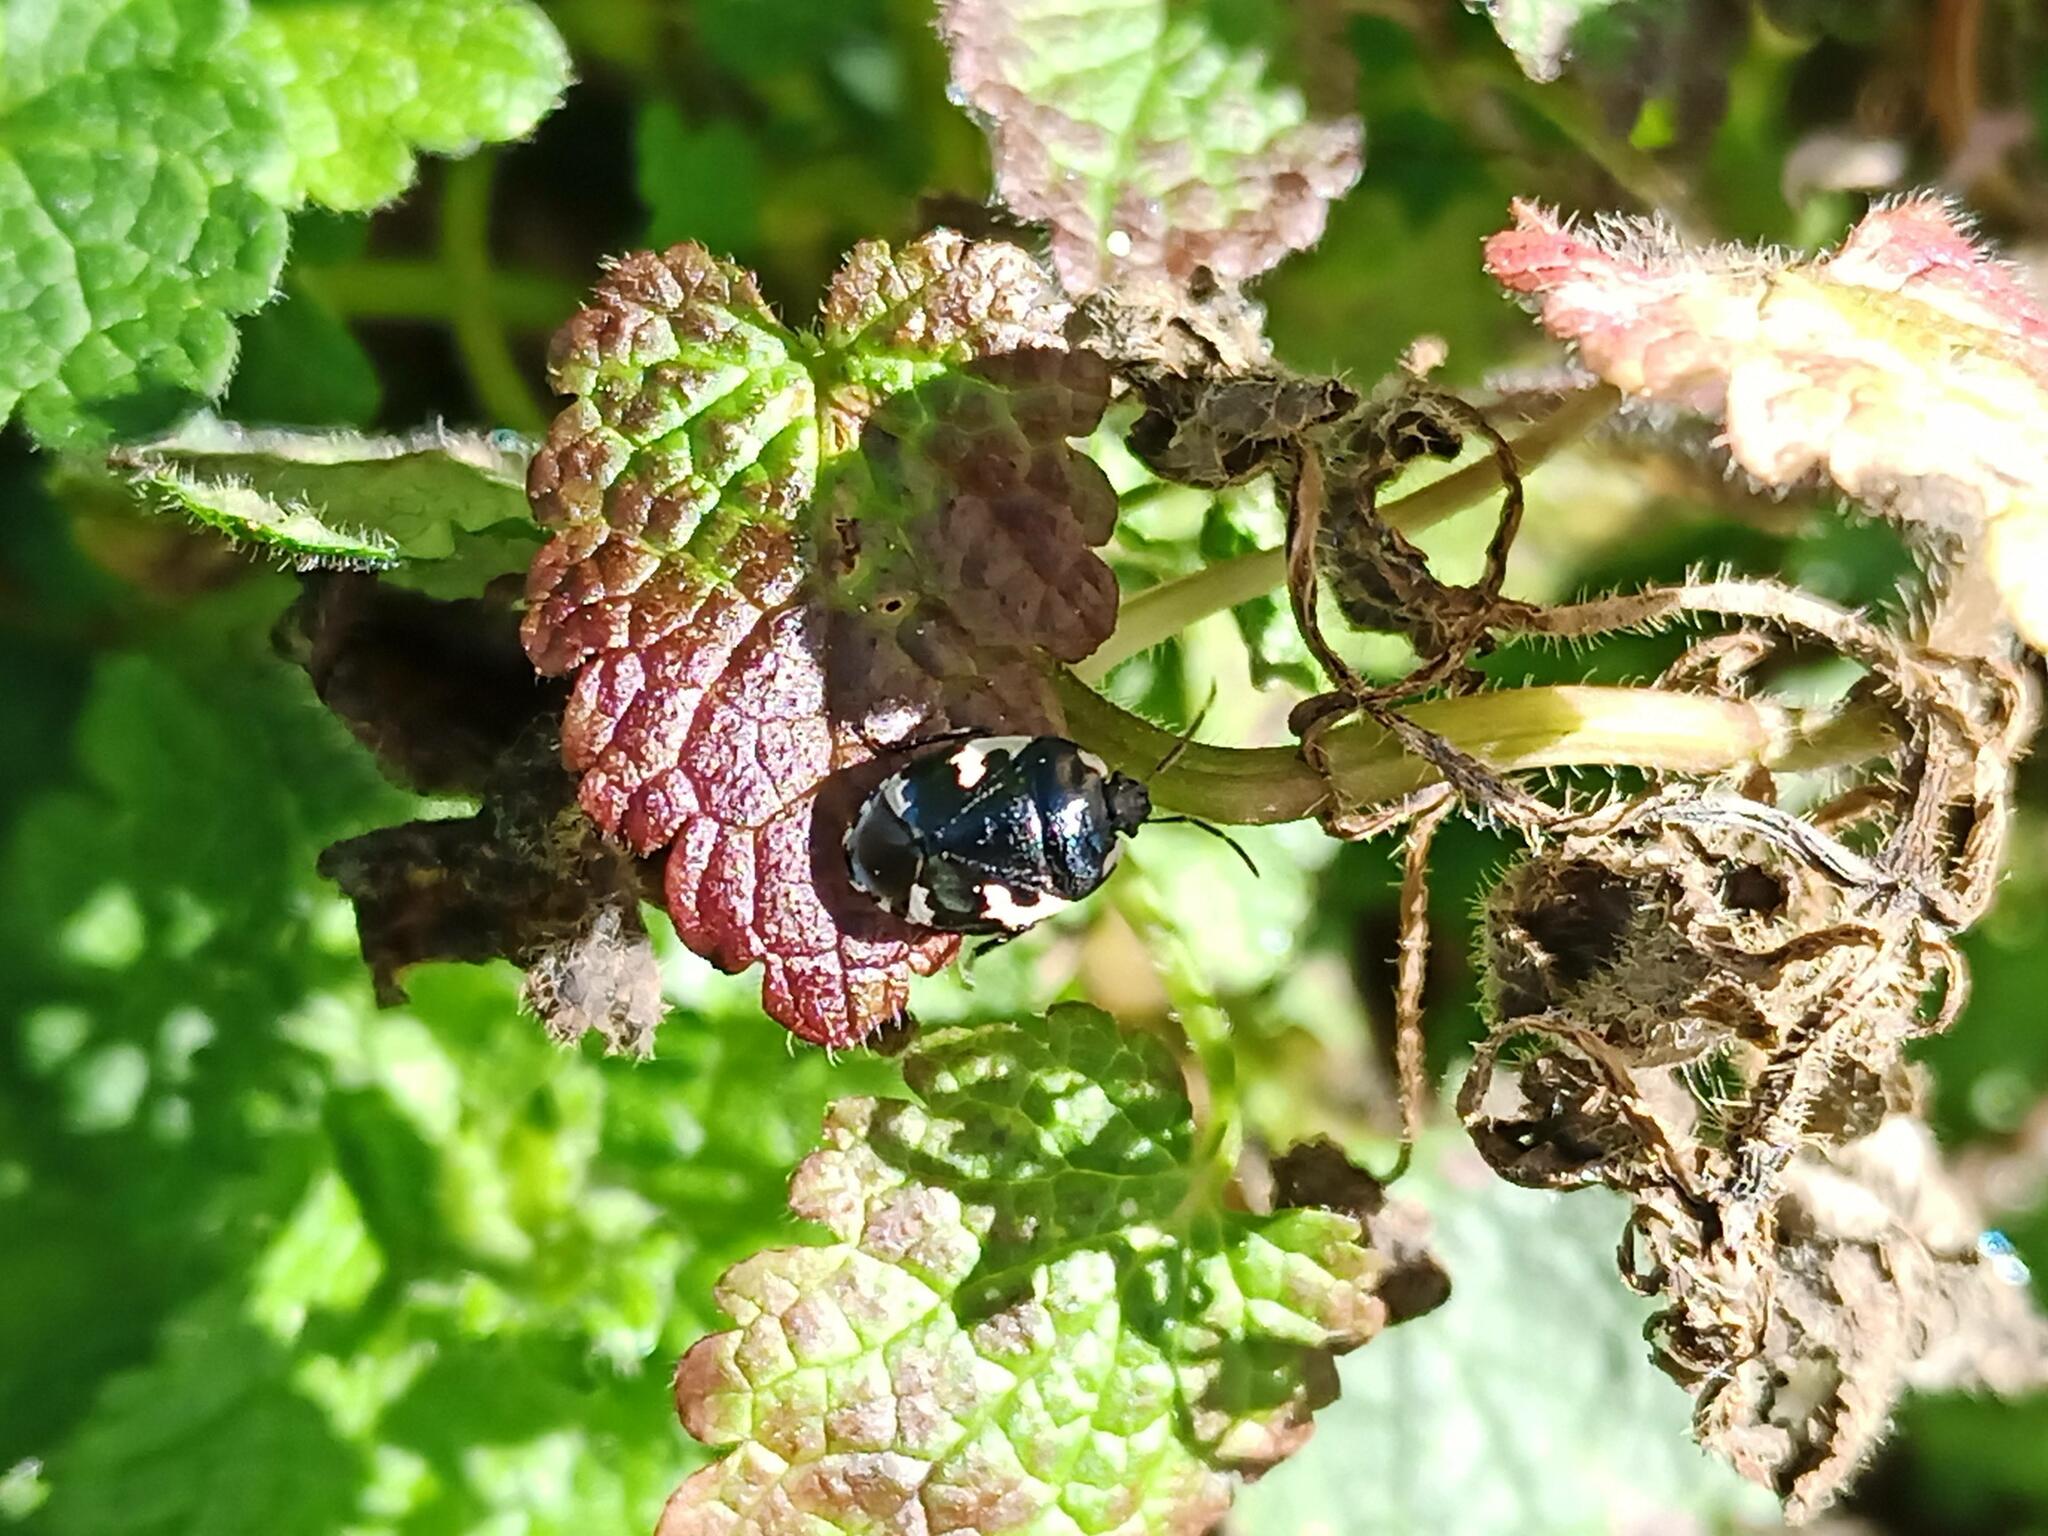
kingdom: Animalia
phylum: Arthropoda
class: Insecta
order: Hemiptera
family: Cydnidae
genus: Tritomegas
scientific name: Tritomegas bicolor
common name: Pied shieldbug
